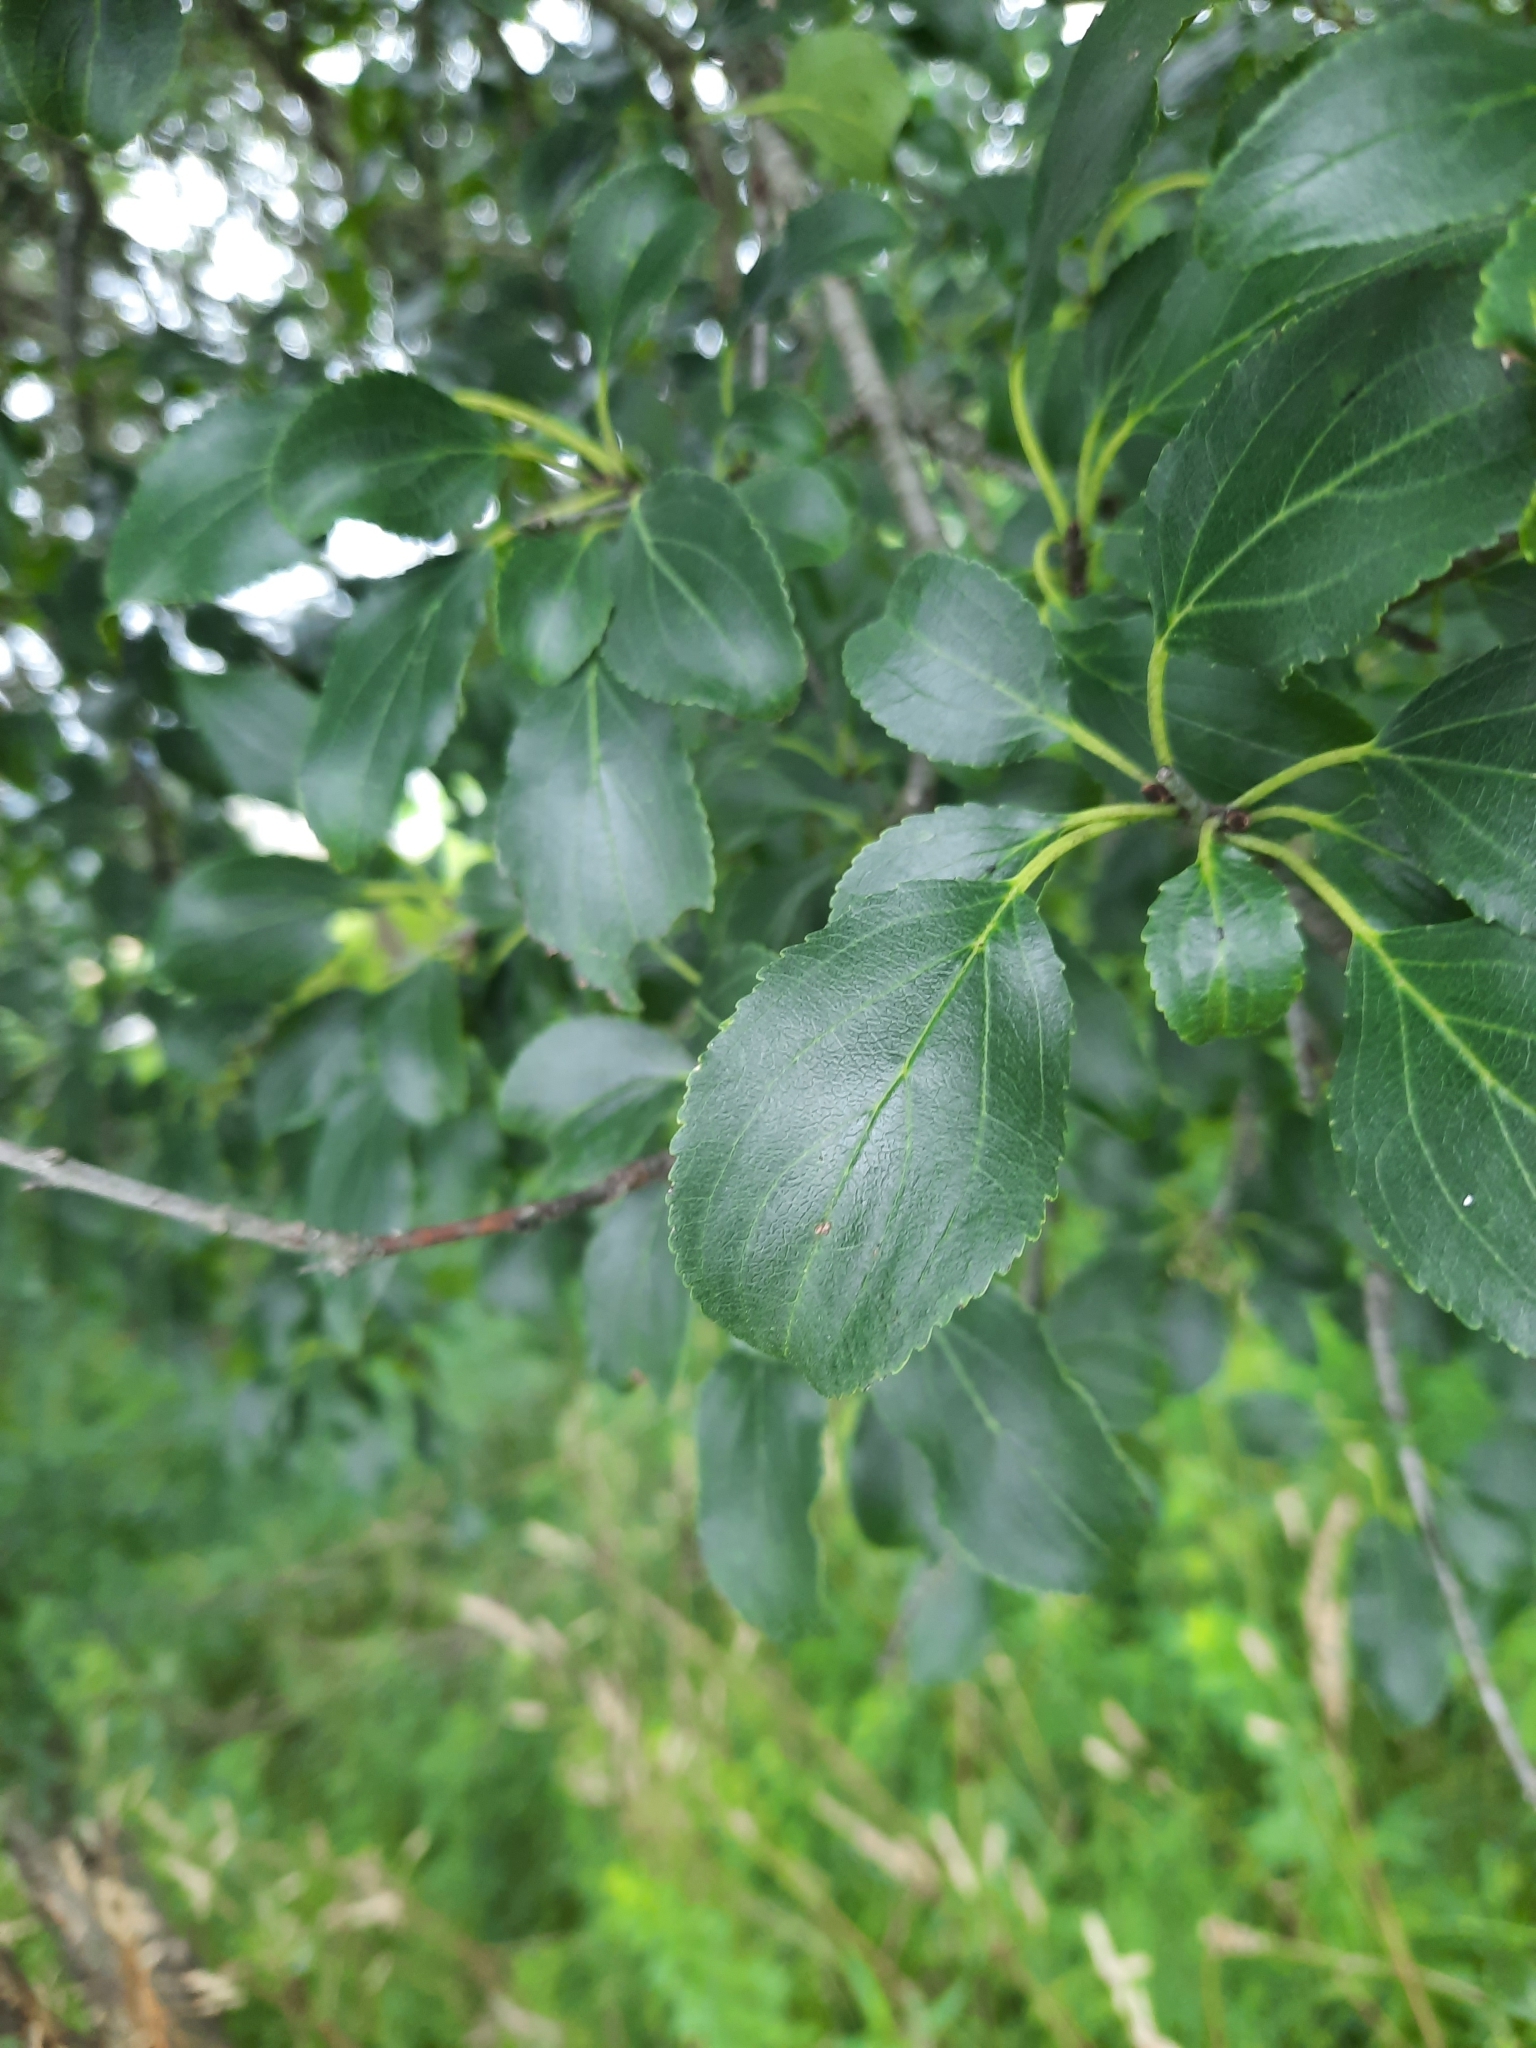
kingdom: Plantae
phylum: Tracheophyta
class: Magnoliopsida
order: Rosales
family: Rhamnaceae
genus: Rhamnus
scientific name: Rhamnus cathartica
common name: Common buckthorn
